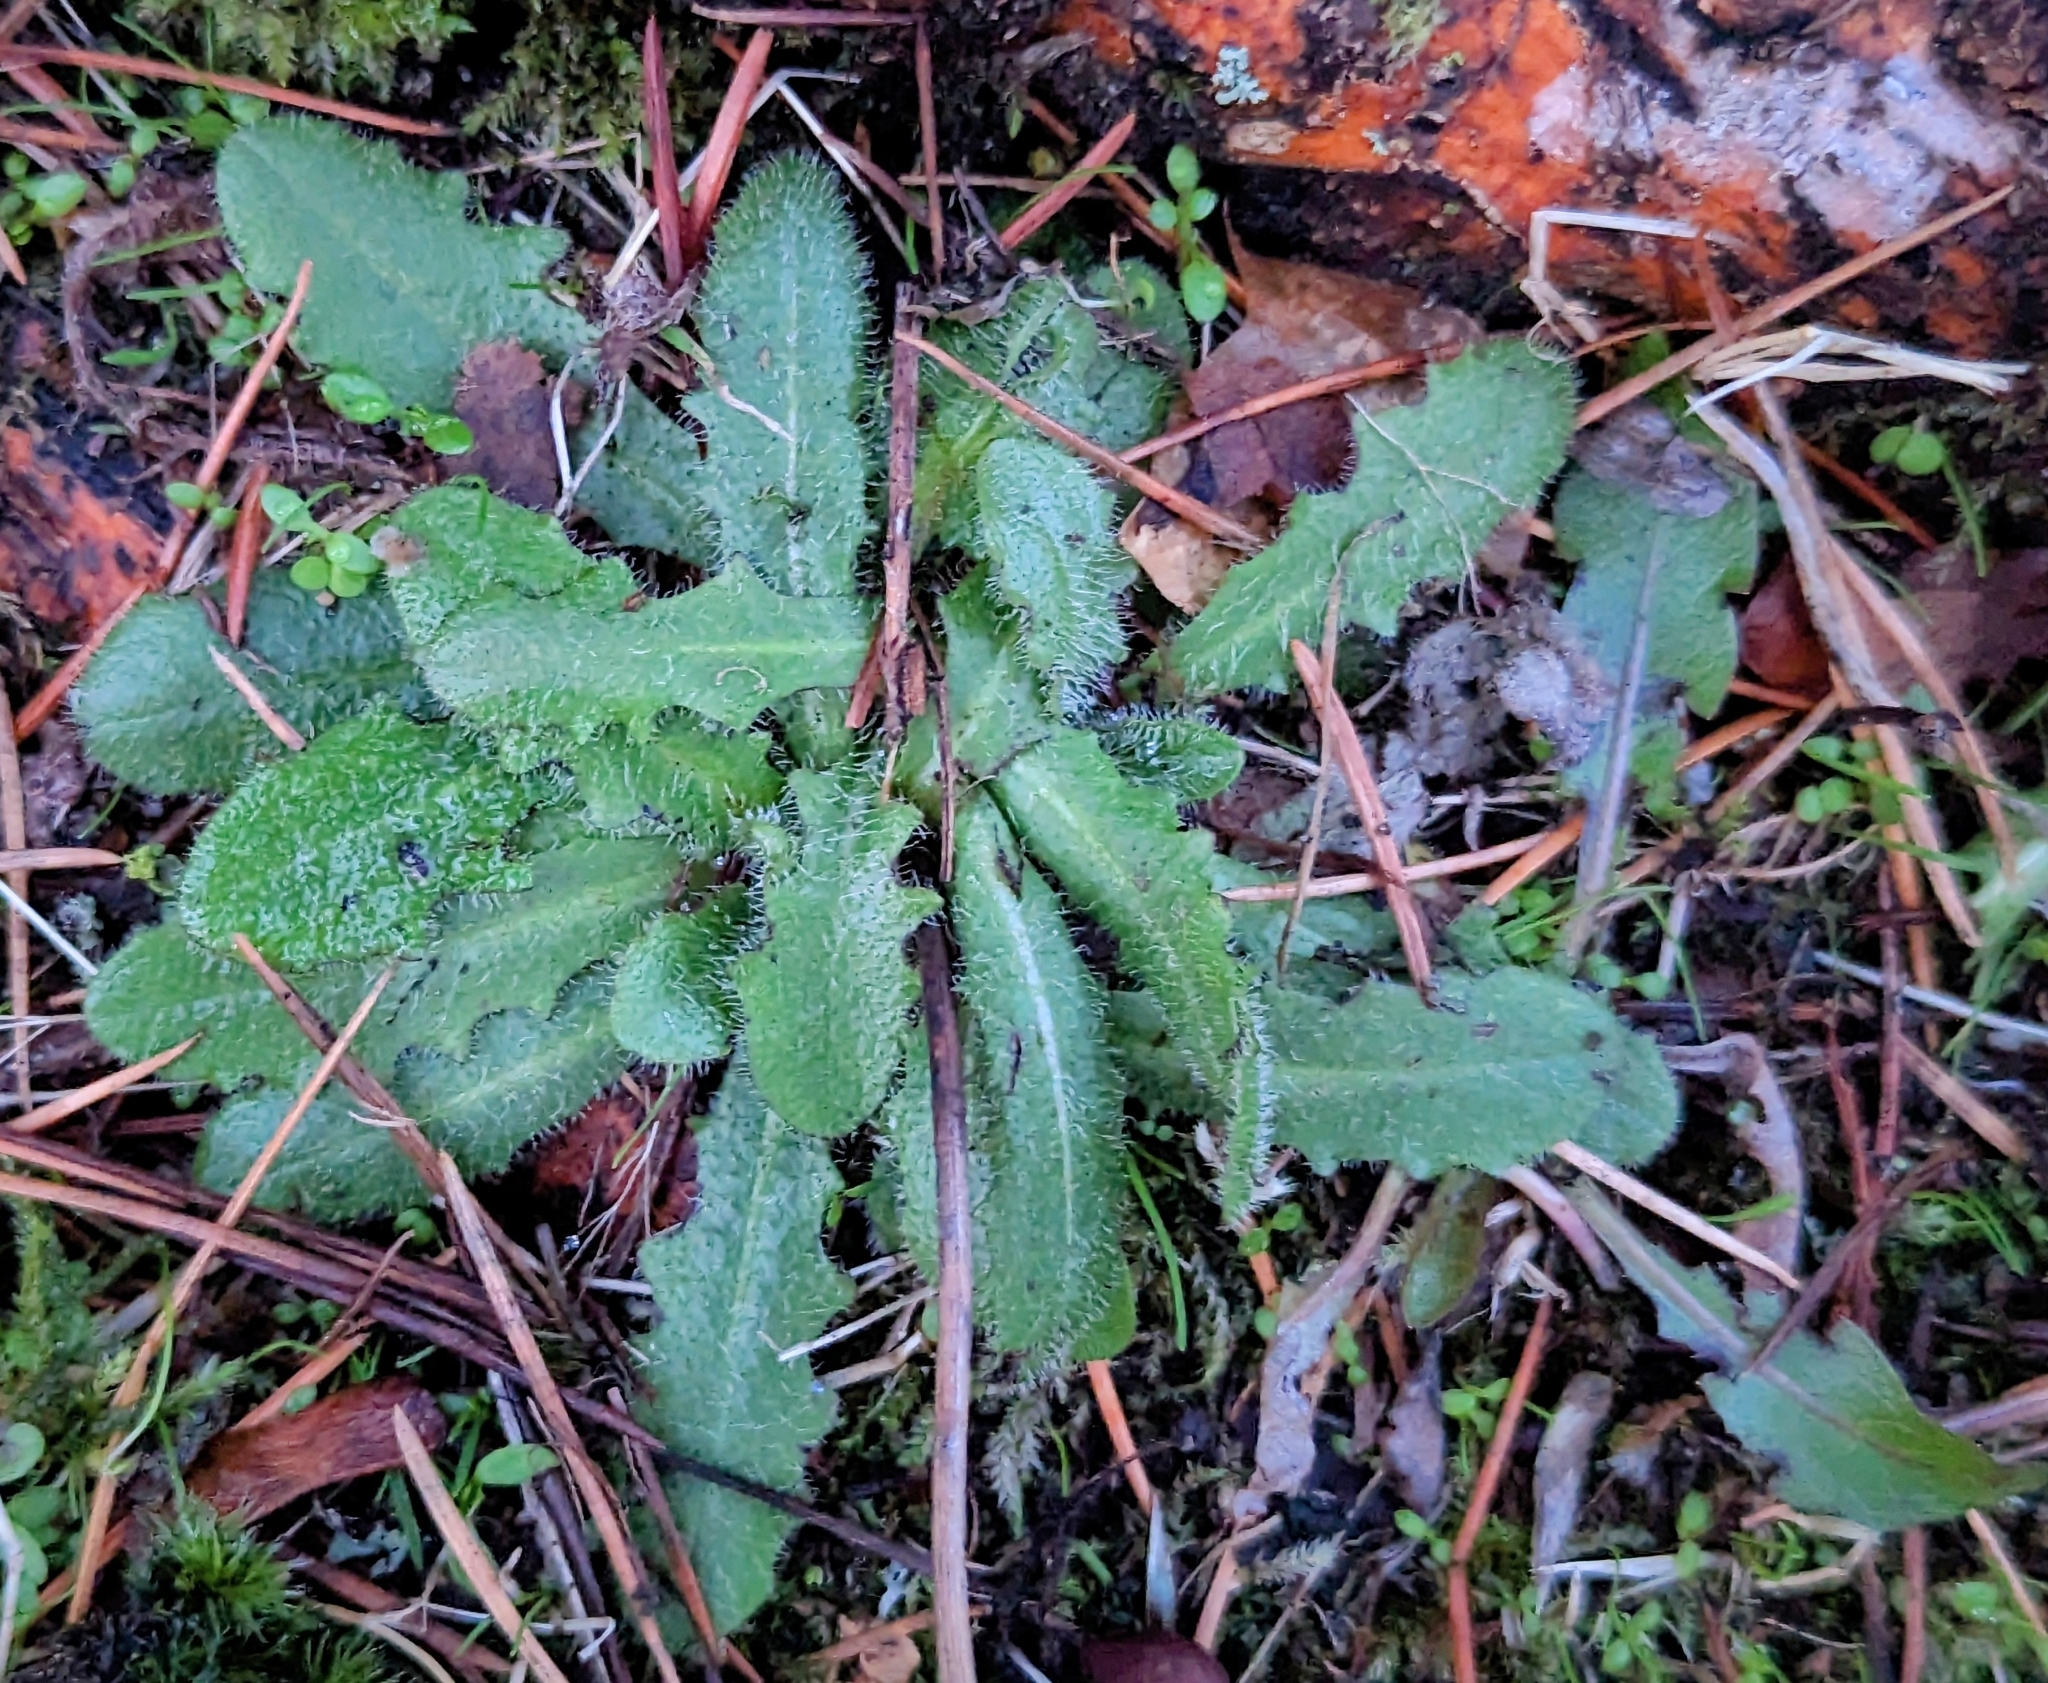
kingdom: Plantae
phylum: Tracheophyta
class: Magnoliopsida
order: Asterales
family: Asteraceae
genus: Hypochaeris
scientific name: Hypochaeris radicata
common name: Flatweed
